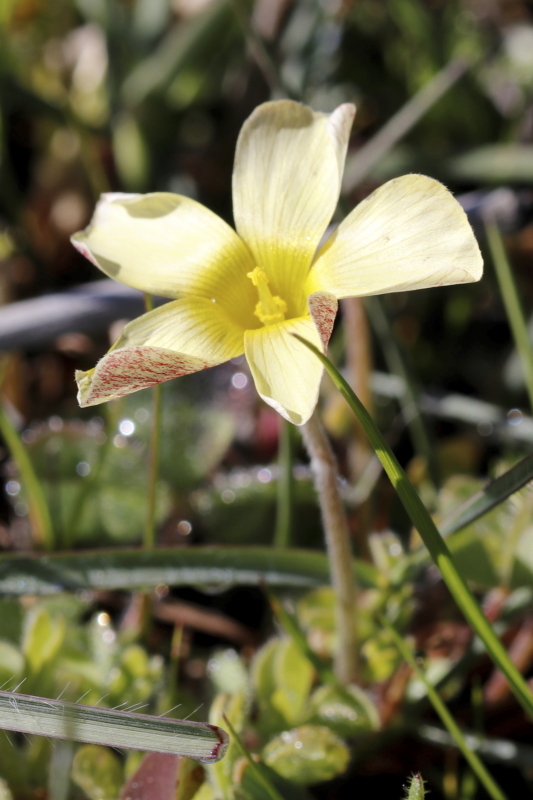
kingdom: Plantae
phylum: Tracheophyta
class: Magnoliopsida
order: Oxalidales
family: Oxalidaceae
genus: Oxalis
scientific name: Oxalis obtusa
